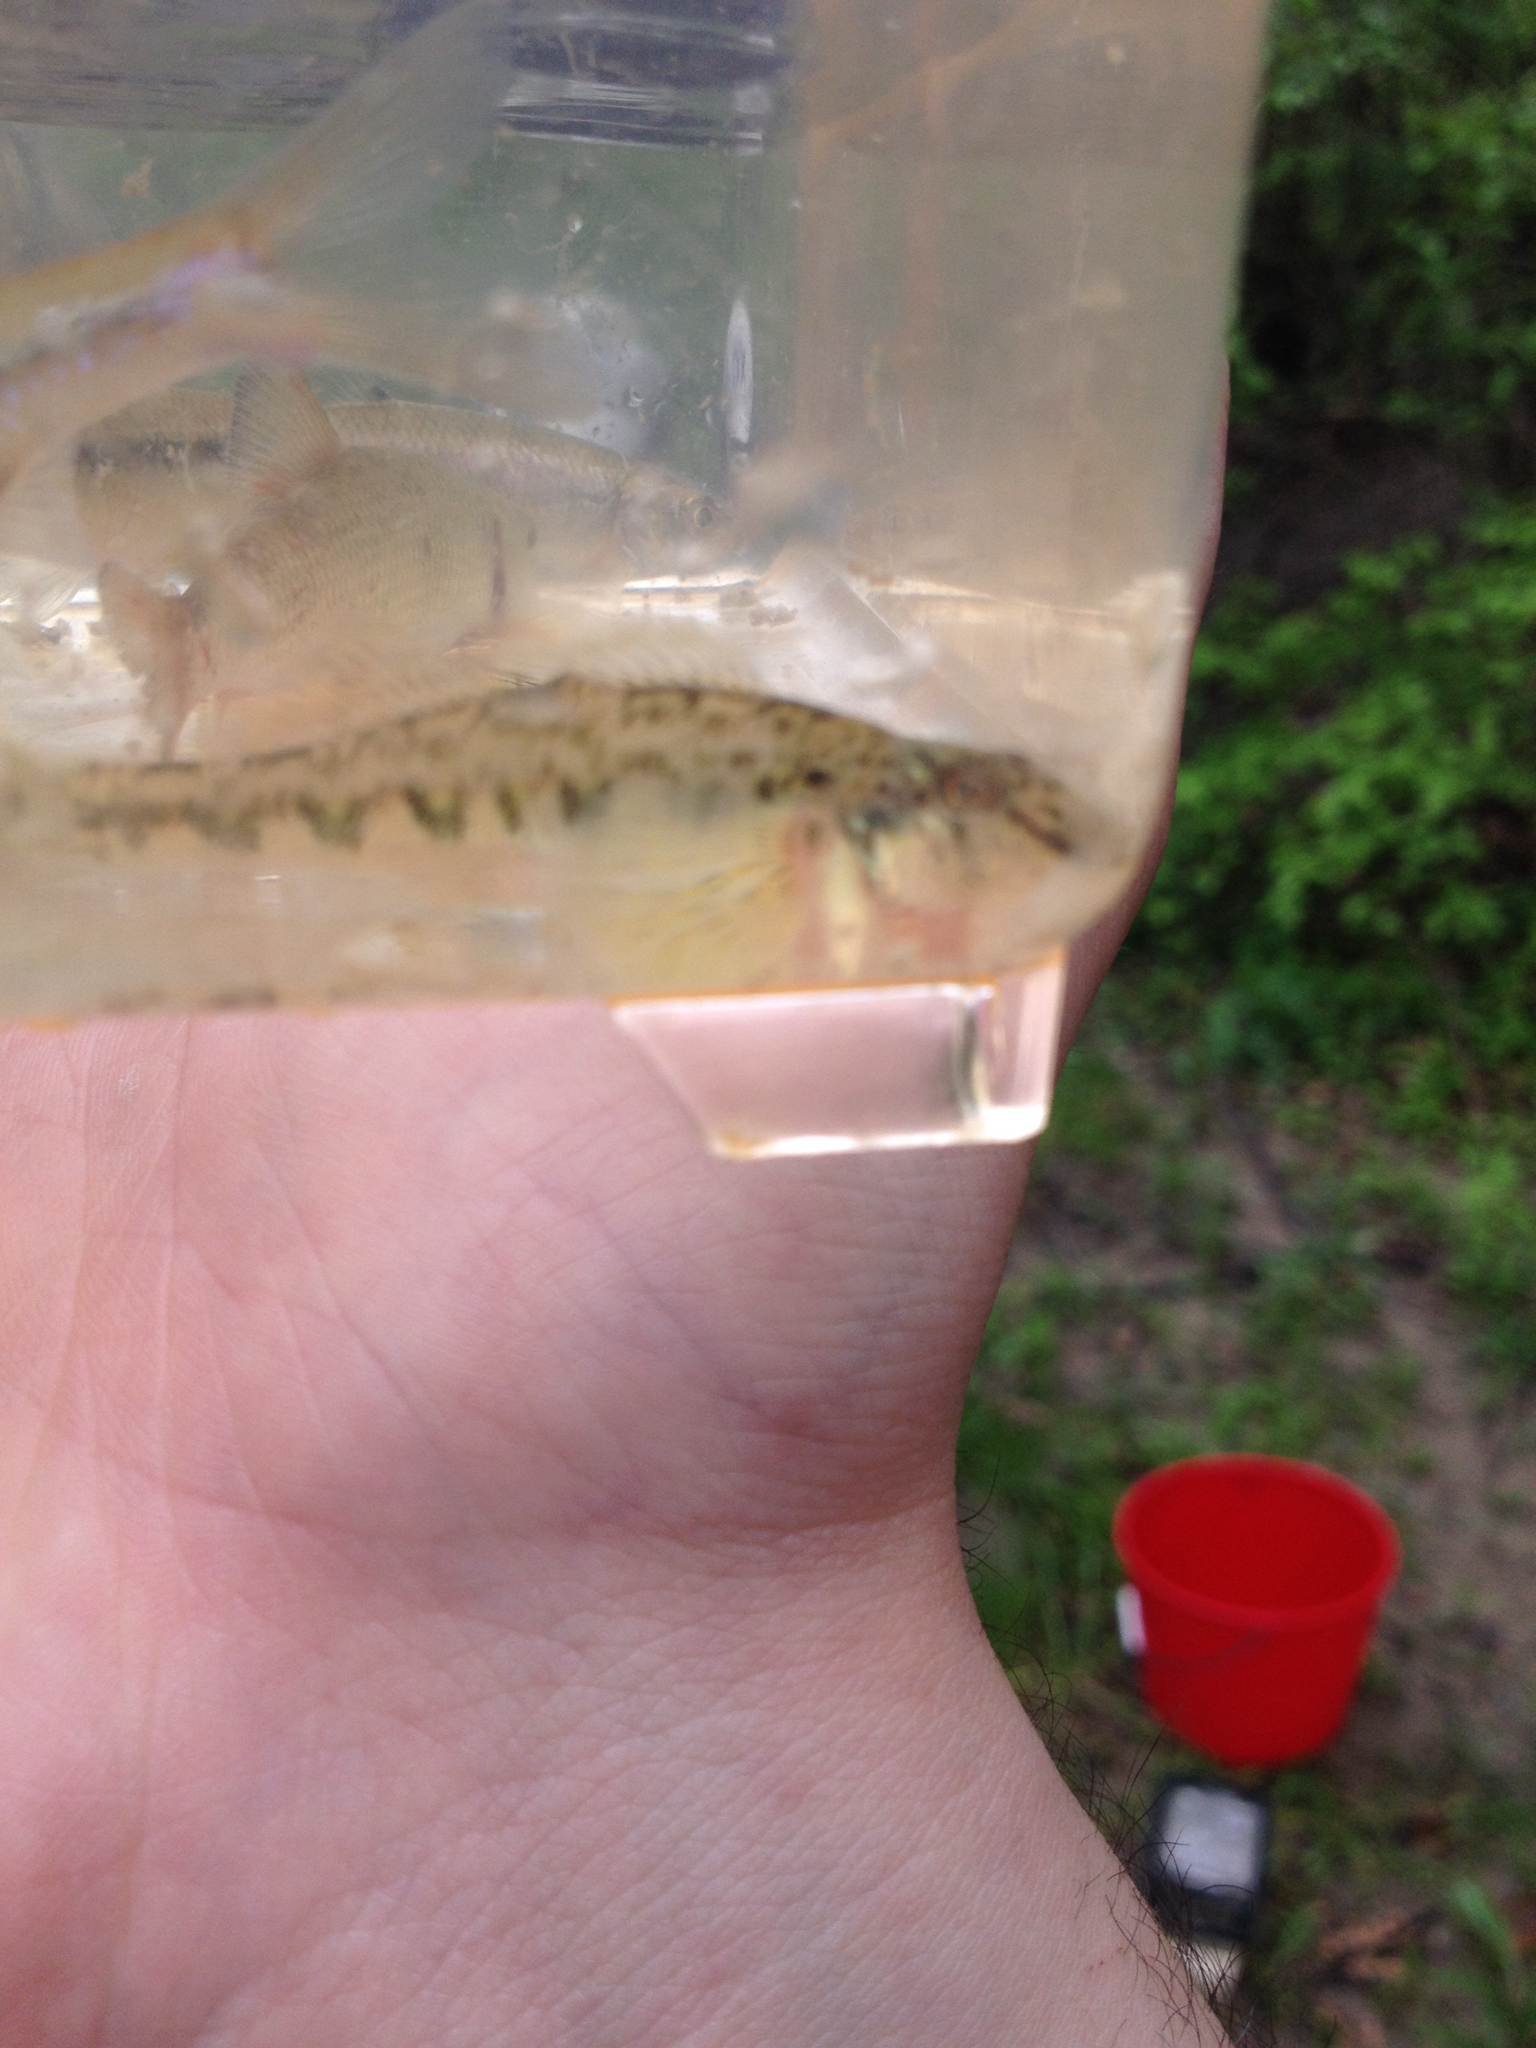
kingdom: Animalia
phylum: Chordata
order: Perciformes
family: Percidae
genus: Etheostoma
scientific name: Etheostoma blennioides
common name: Greenside darter
